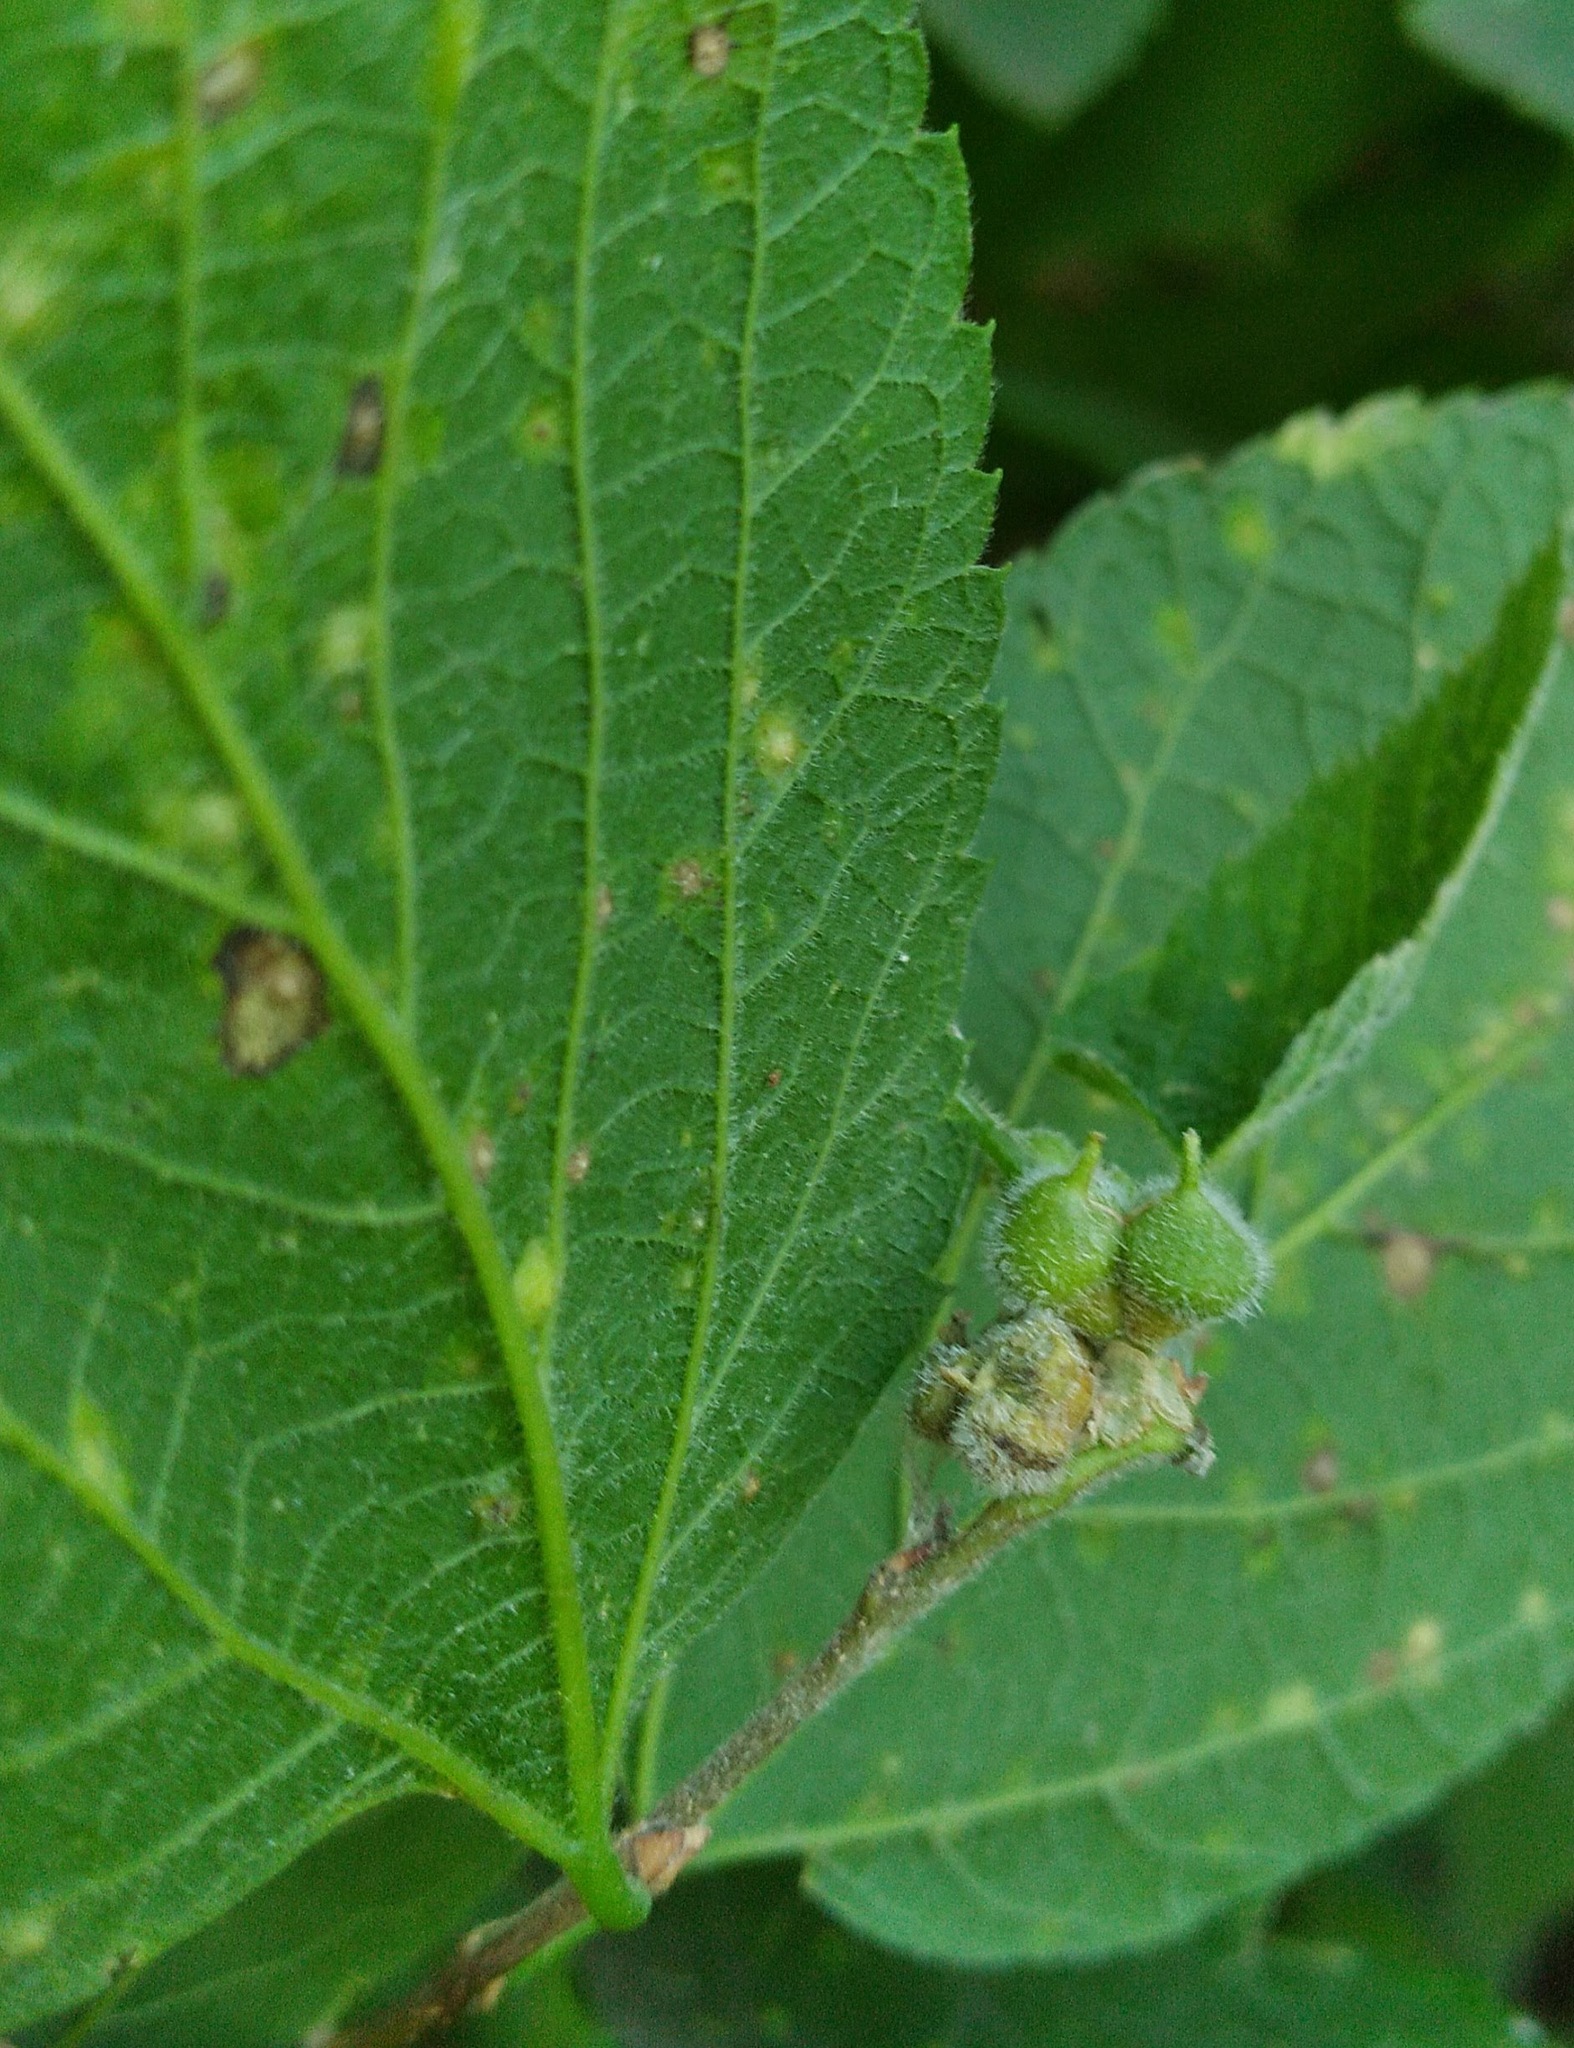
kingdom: Animalia
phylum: Arthropoda
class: Insecta
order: Diptera
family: Cecidomyiidae
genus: Celticecis
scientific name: Celticecis celtiphyllia
